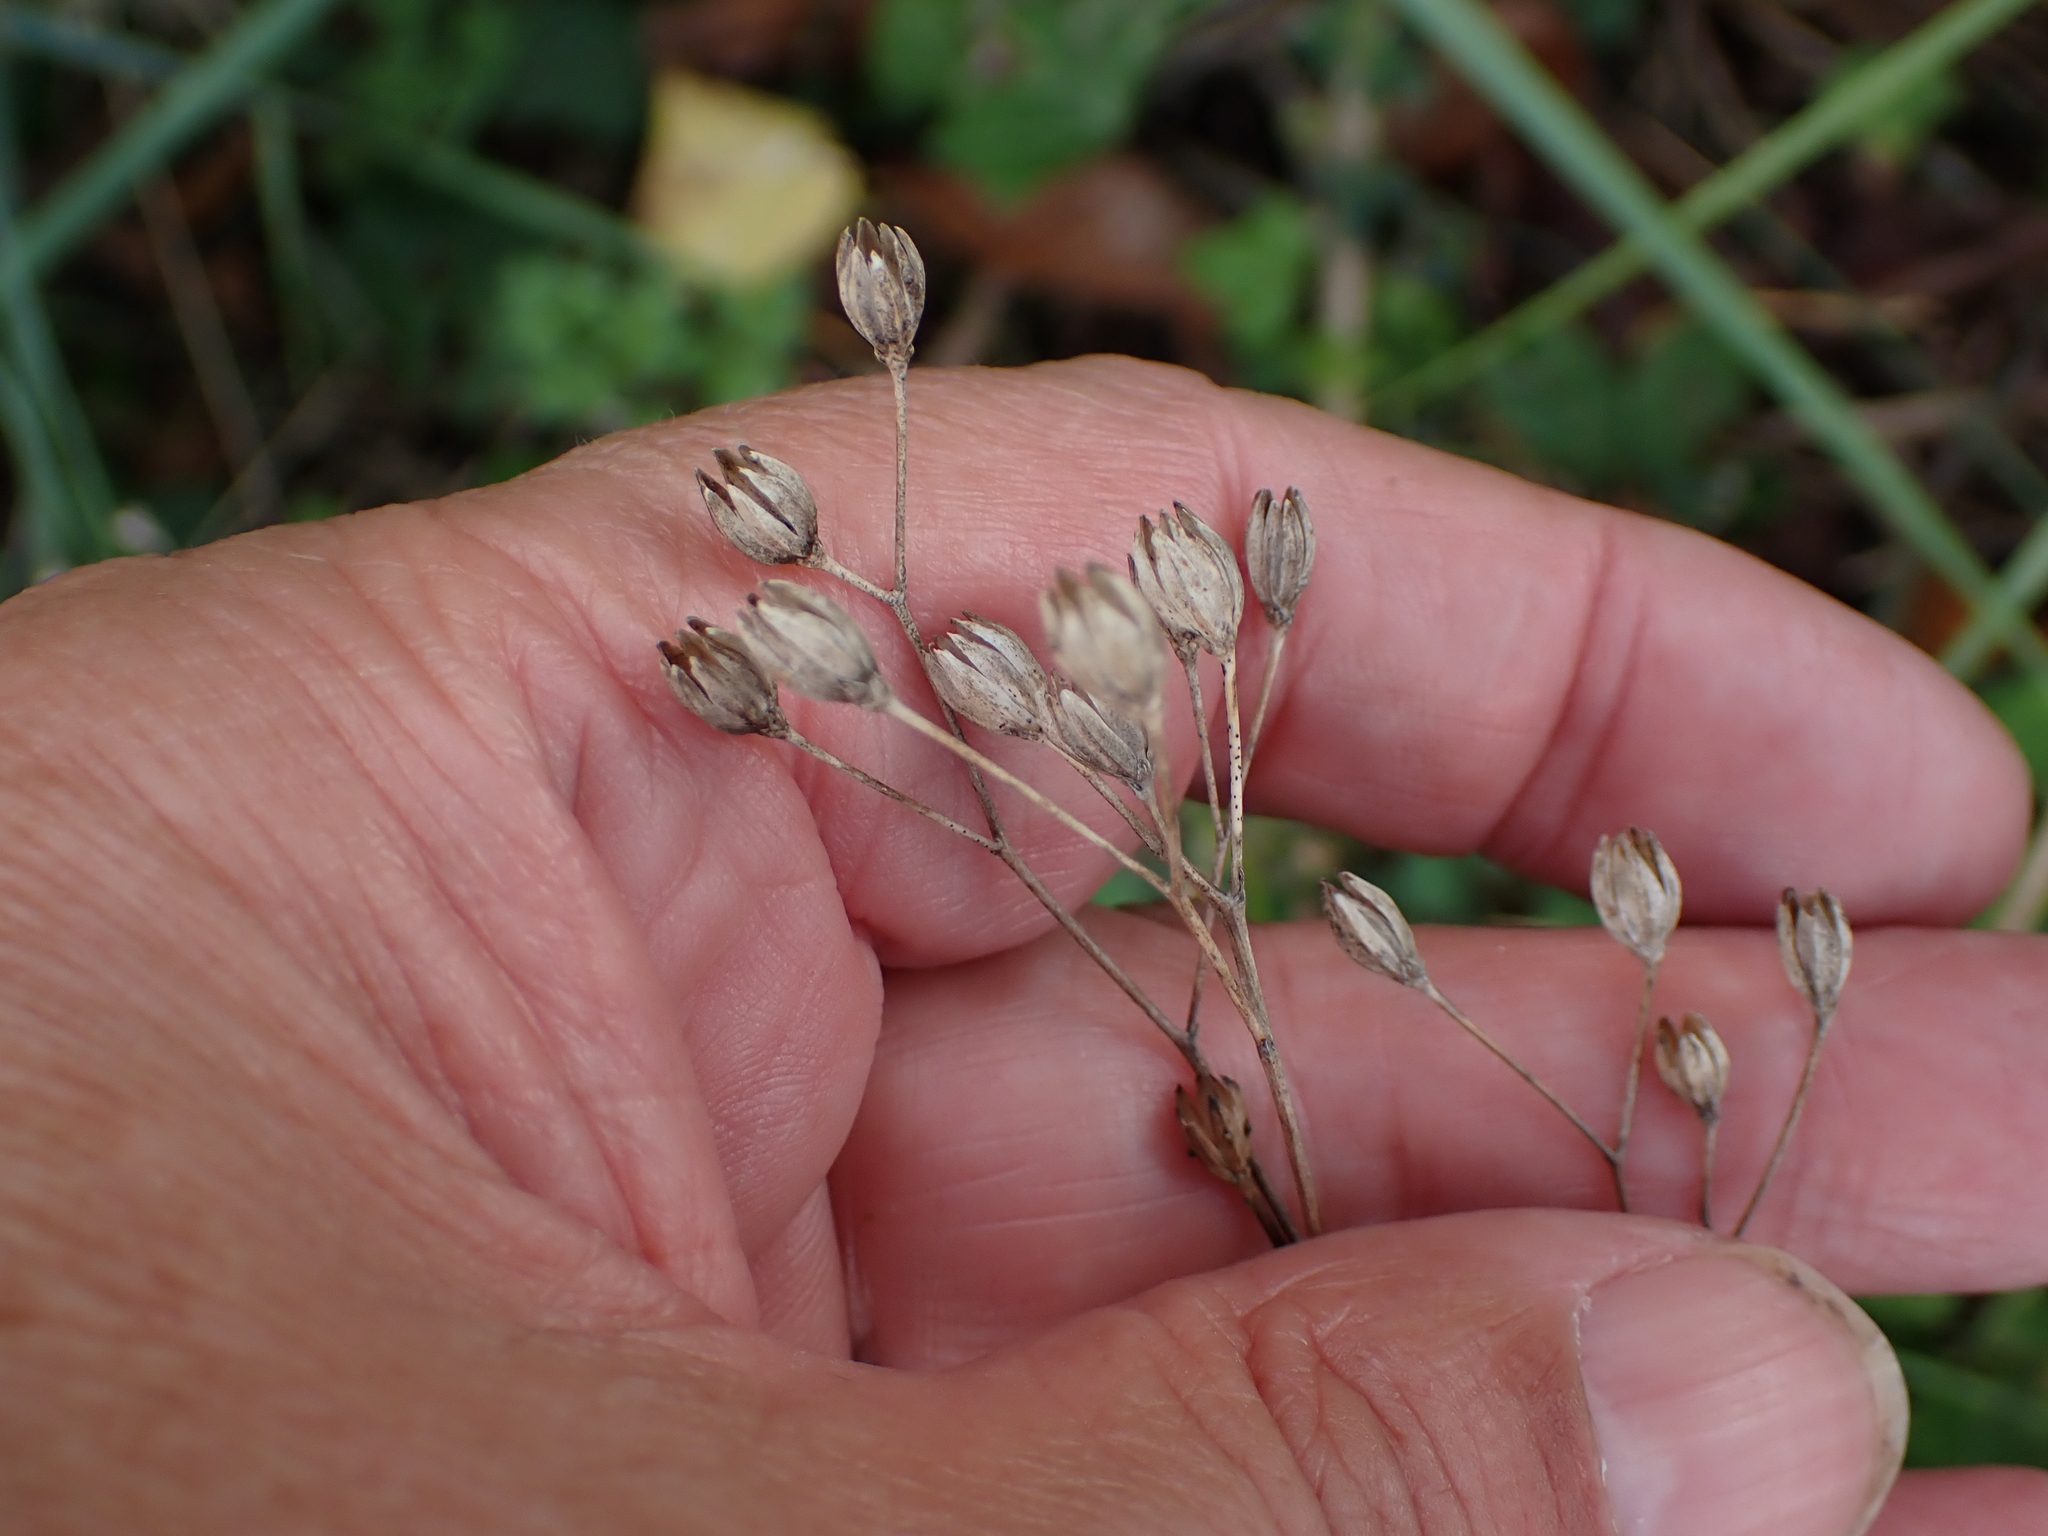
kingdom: Plantae
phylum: Tracheophyta
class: Magnoliopsida
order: Asterales
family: Asteraceae
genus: Lapsana
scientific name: Lapsana communis
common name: Nipplewort
